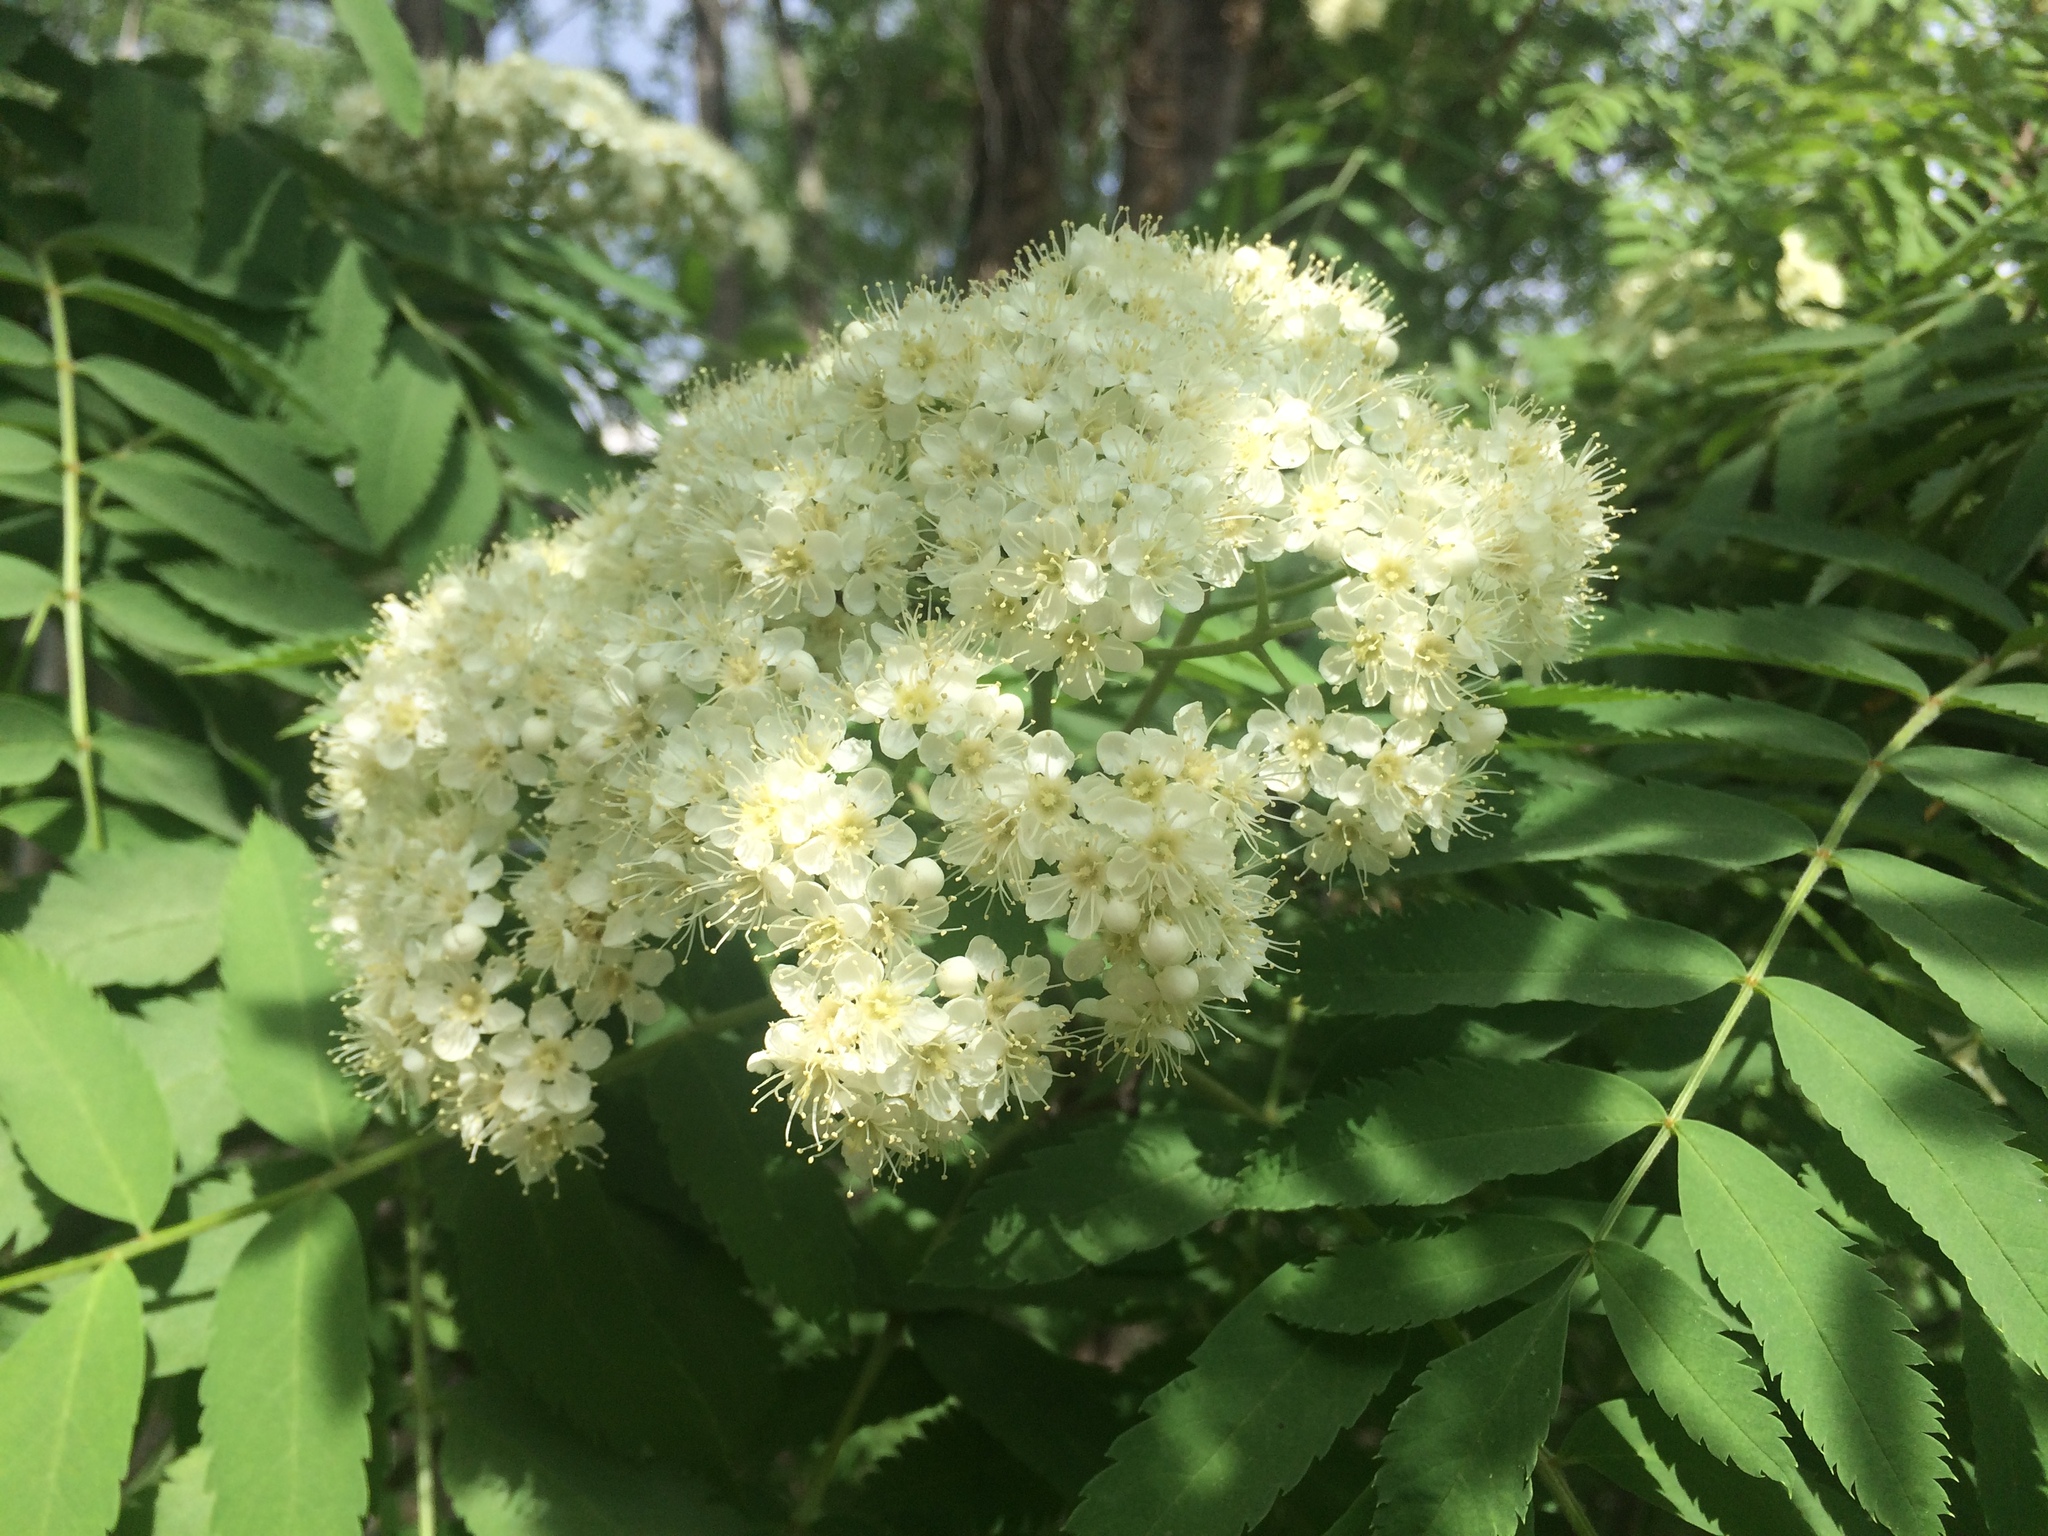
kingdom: Plantae
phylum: Tracheophyta
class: Magnoliopsida
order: Rosales
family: Rosaceae
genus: Sorbus
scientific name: Sorbus aucuparia
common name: Rowan
